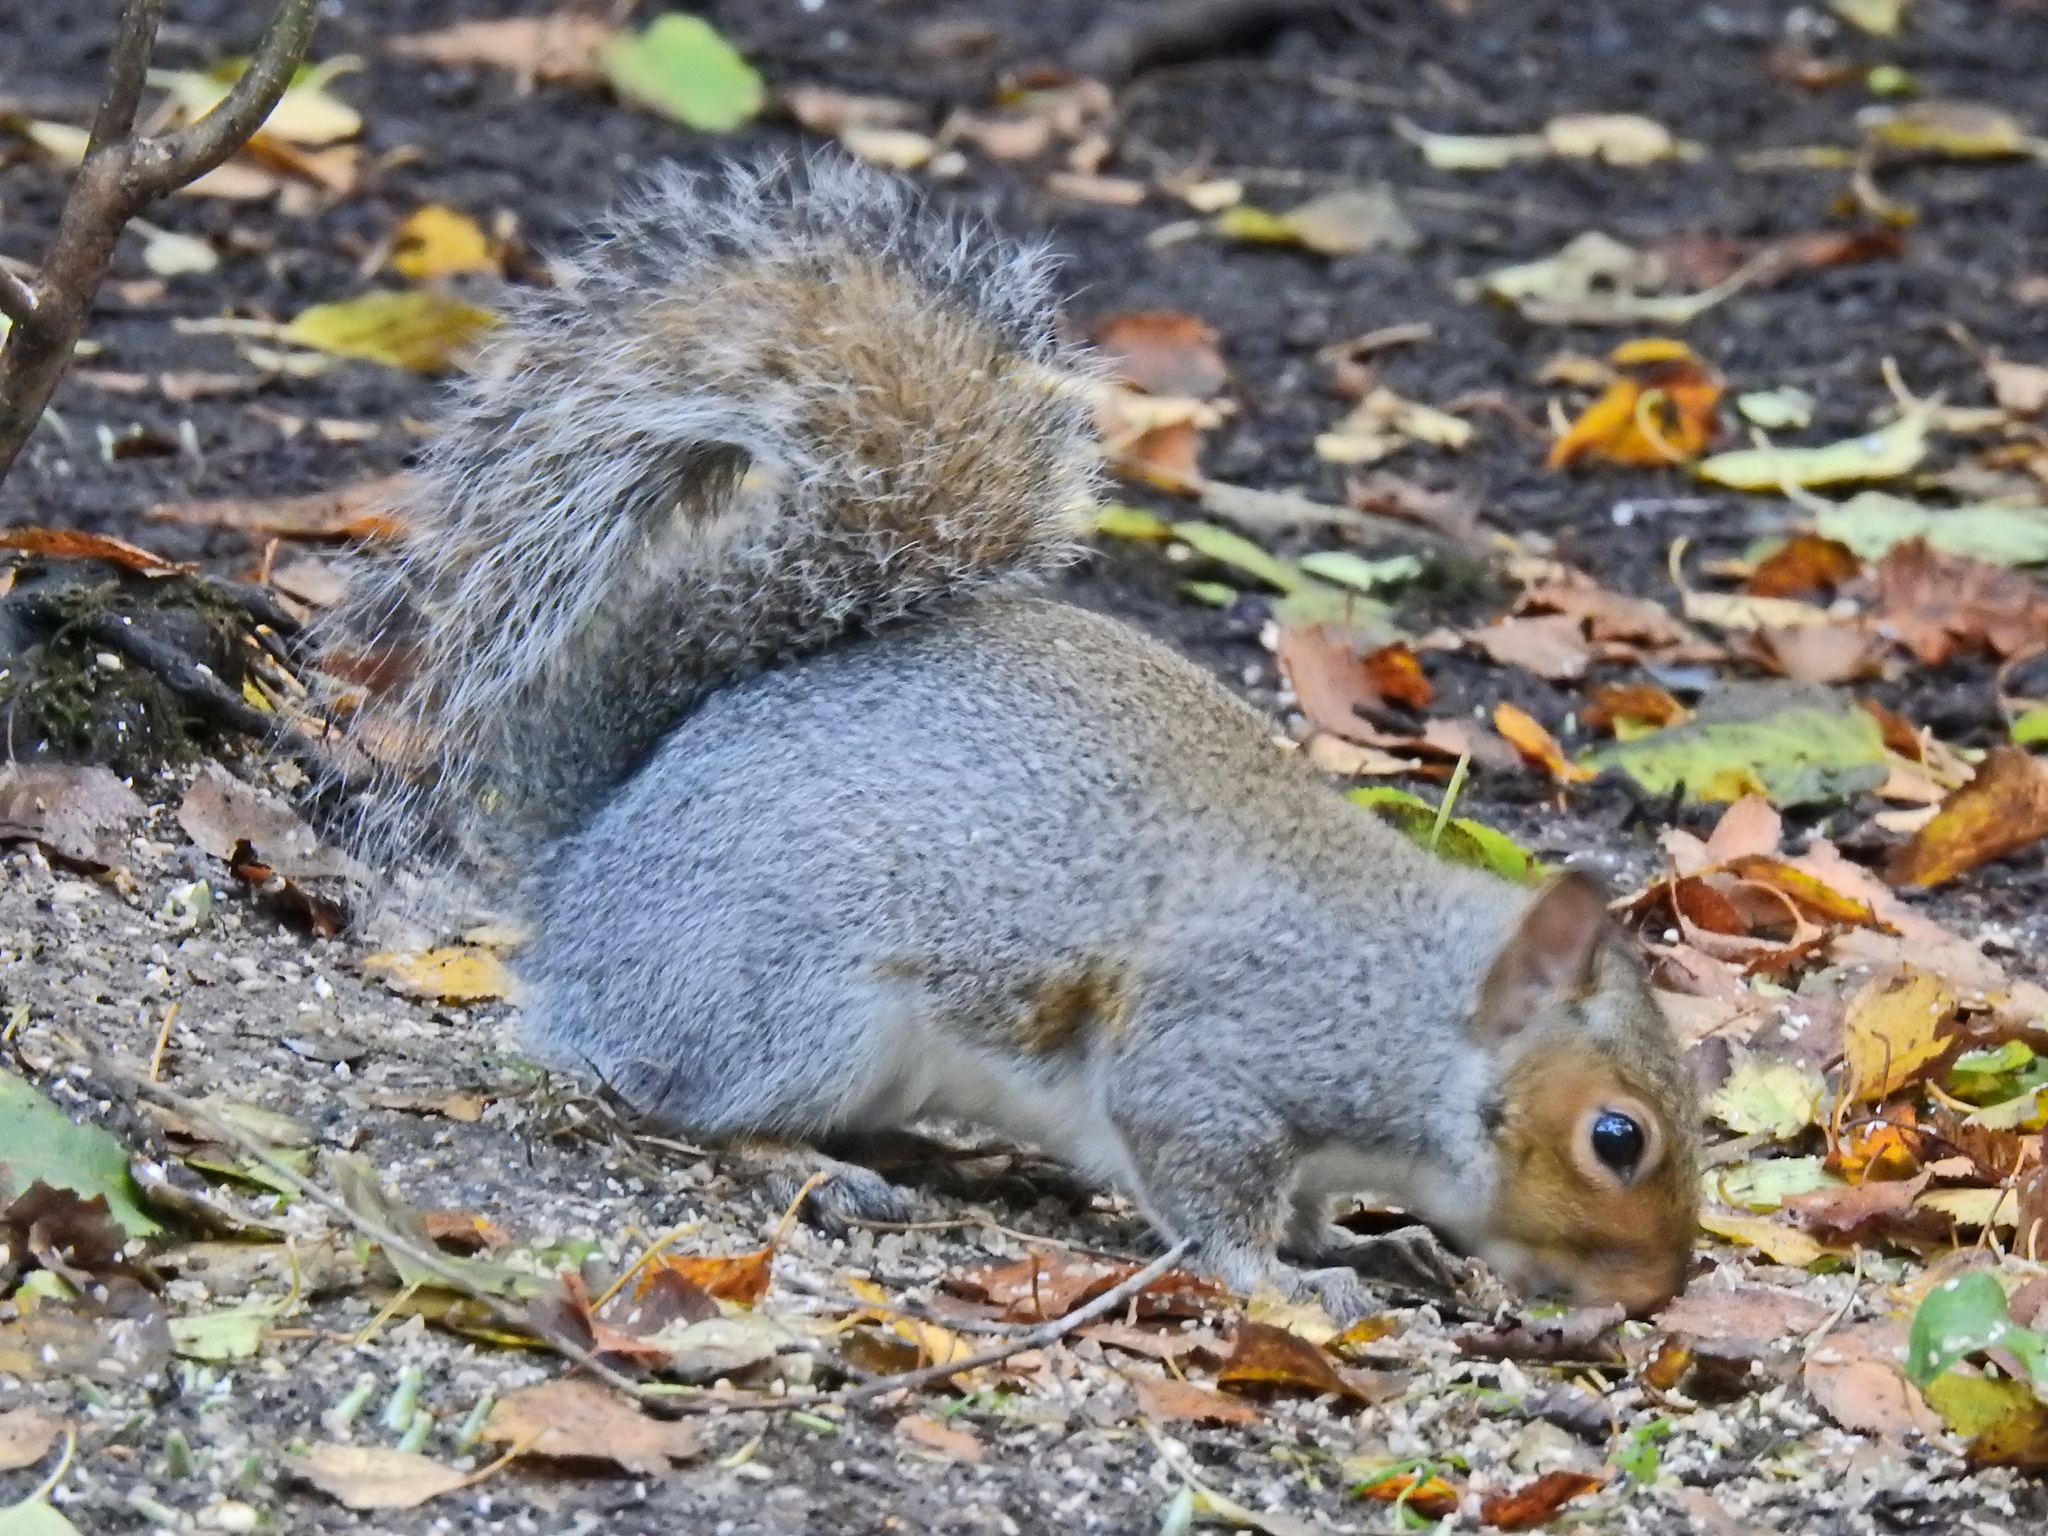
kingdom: Animalia
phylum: Chordata
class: Mammalia
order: Rodentia
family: Sciuridae
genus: Sciurus
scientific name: Sciurus carolinensis
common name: Eastern gray squirrel
